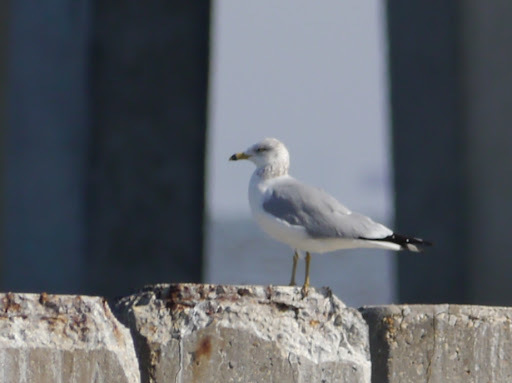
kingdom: Animalia
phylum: Chordata
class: Aves
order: Charadriiformes
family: Laridae
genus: Larus
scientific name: Larus delawarensis
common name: Ring-billed gull
